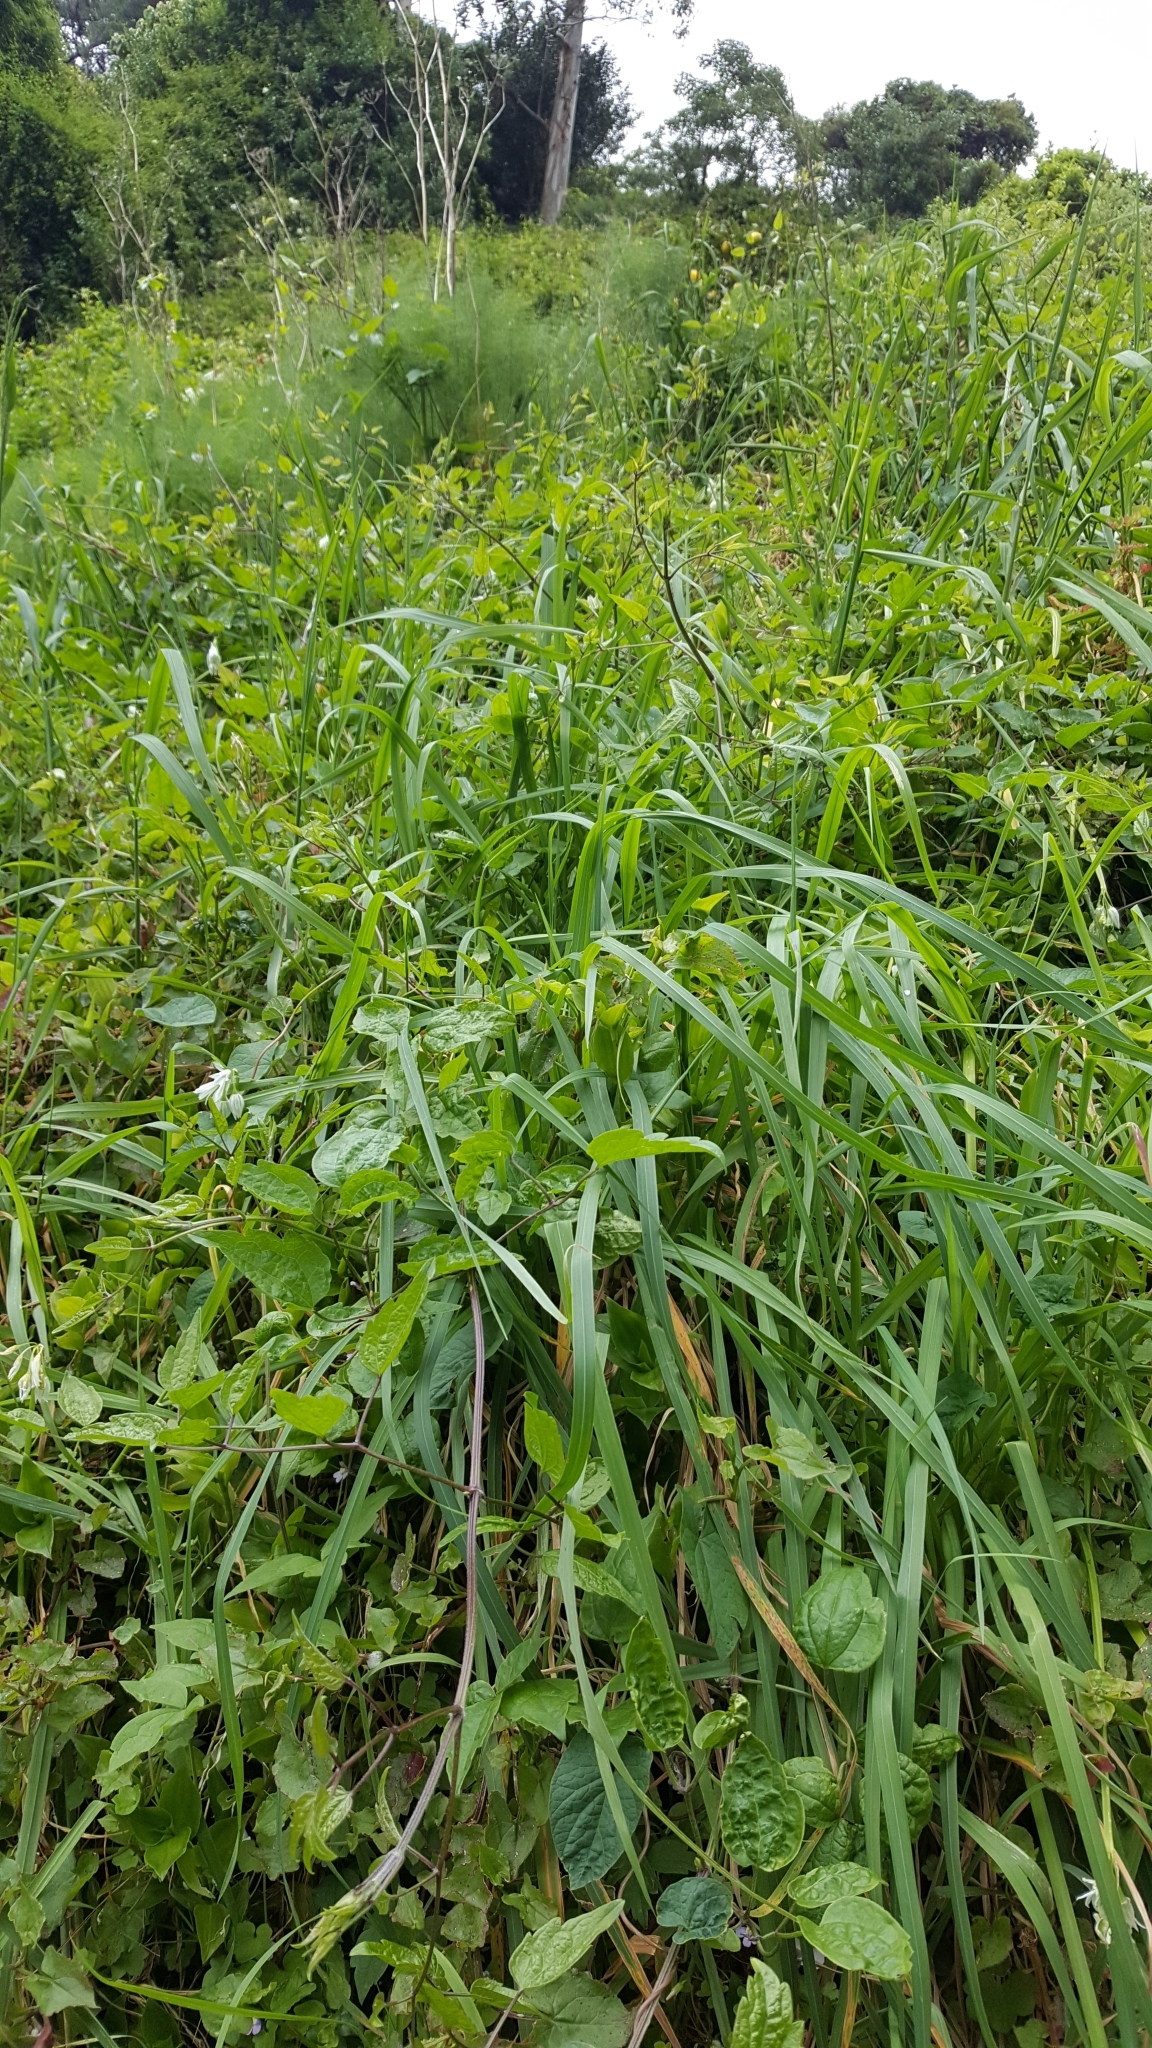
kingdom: Plantae
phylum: Tracheophyta
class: Magnoliopsida
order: Ranunculales
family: Ranunculaceae
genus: Clematis
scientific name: Clematis vitalba
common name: Evergreen clematis
